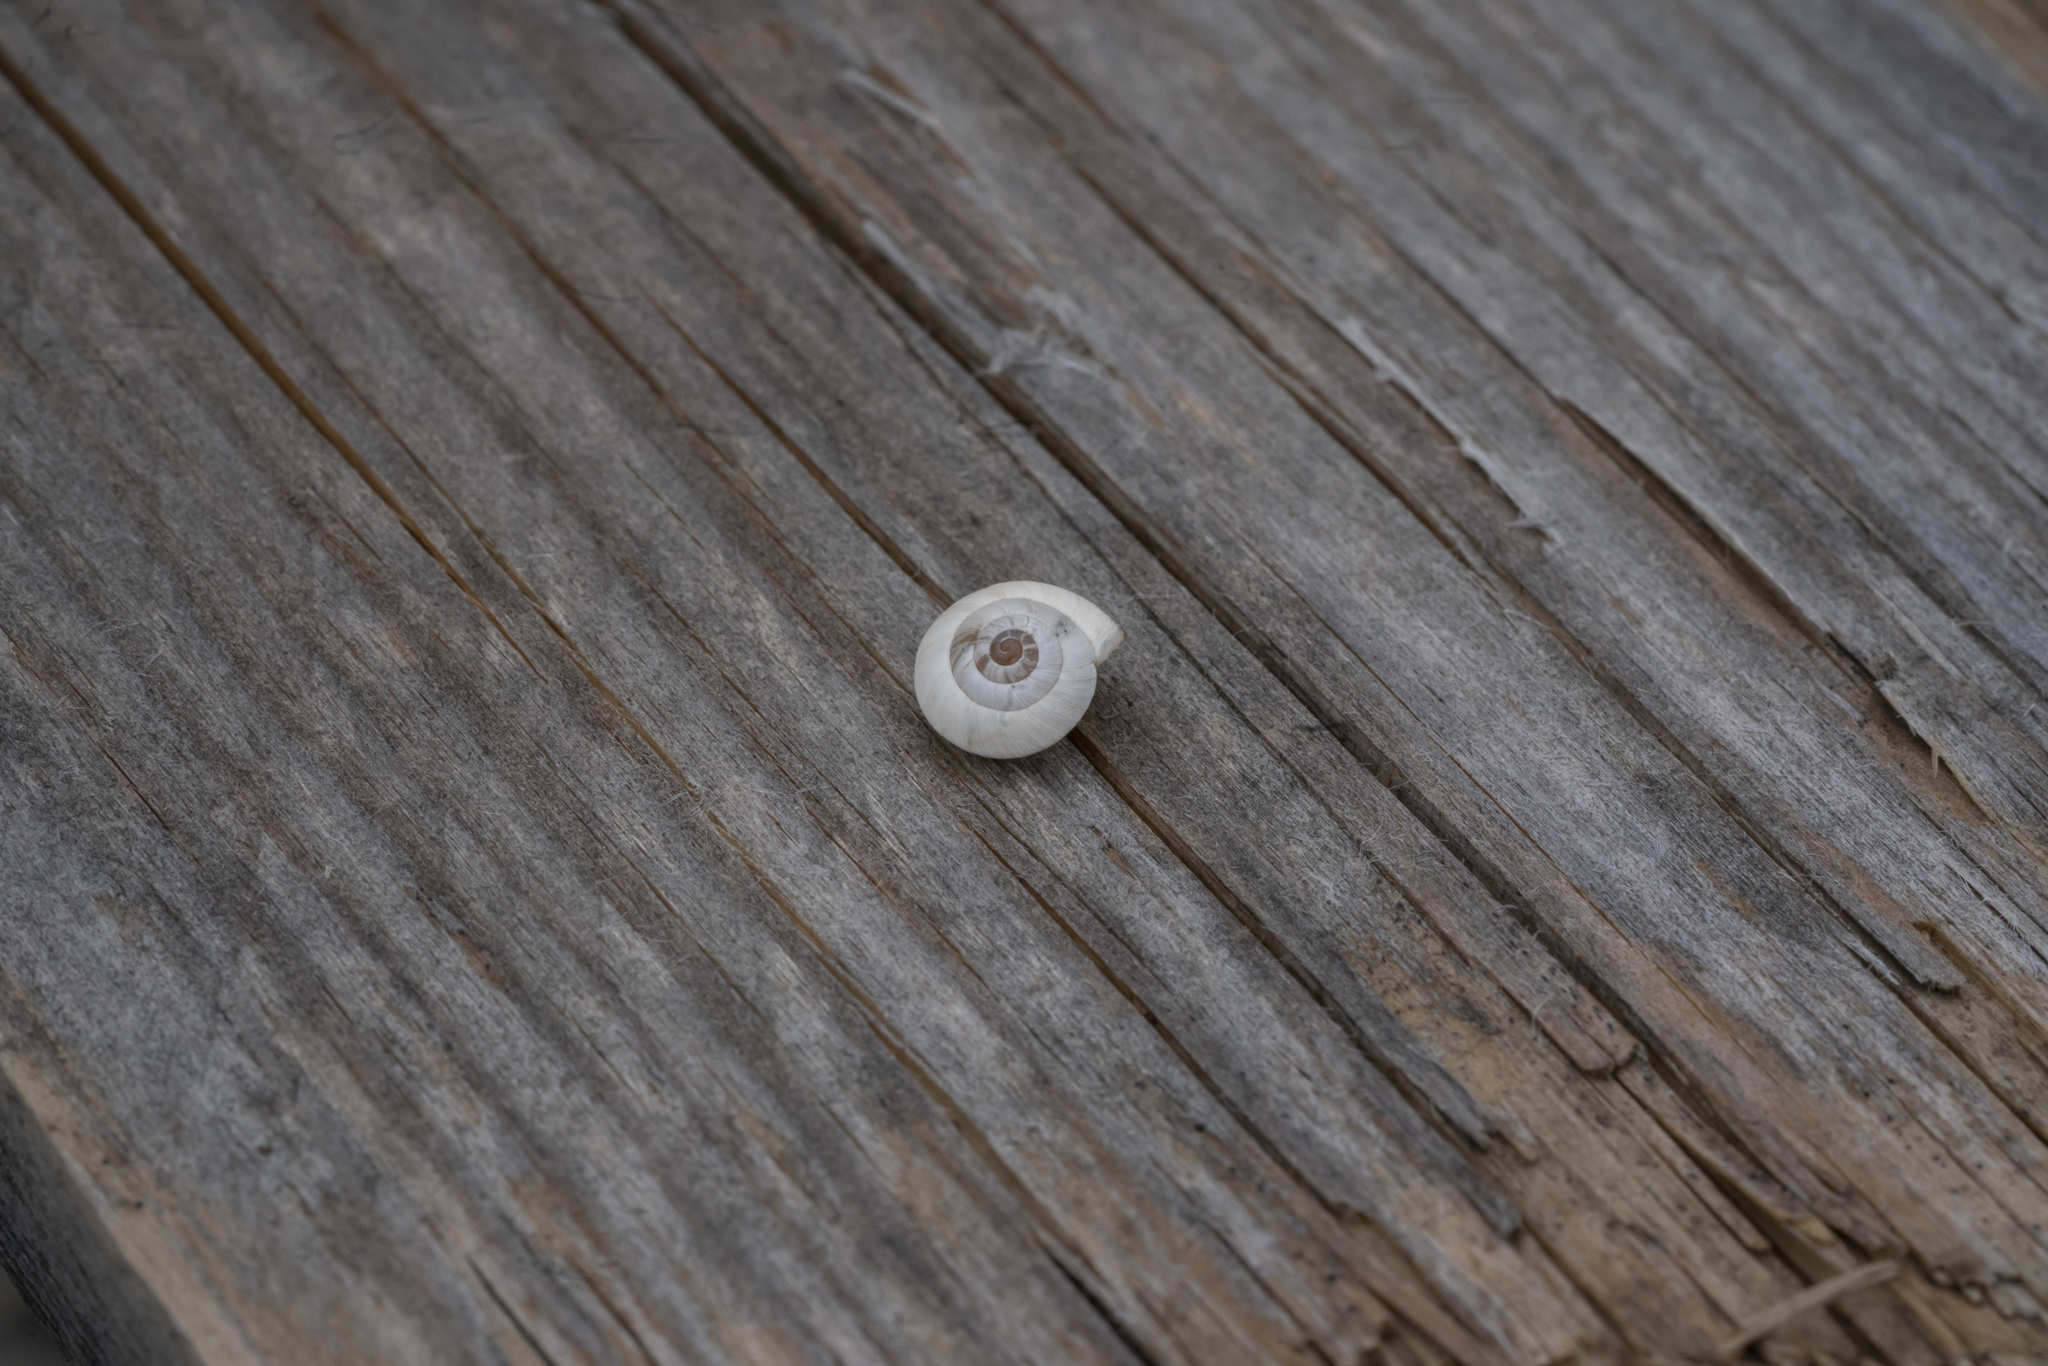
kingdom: Animalia
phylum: Mollusca
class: Gastropoda
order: Stylommatophora
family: Geomitridae
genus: Cernuella
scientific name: Cernuella virgata
